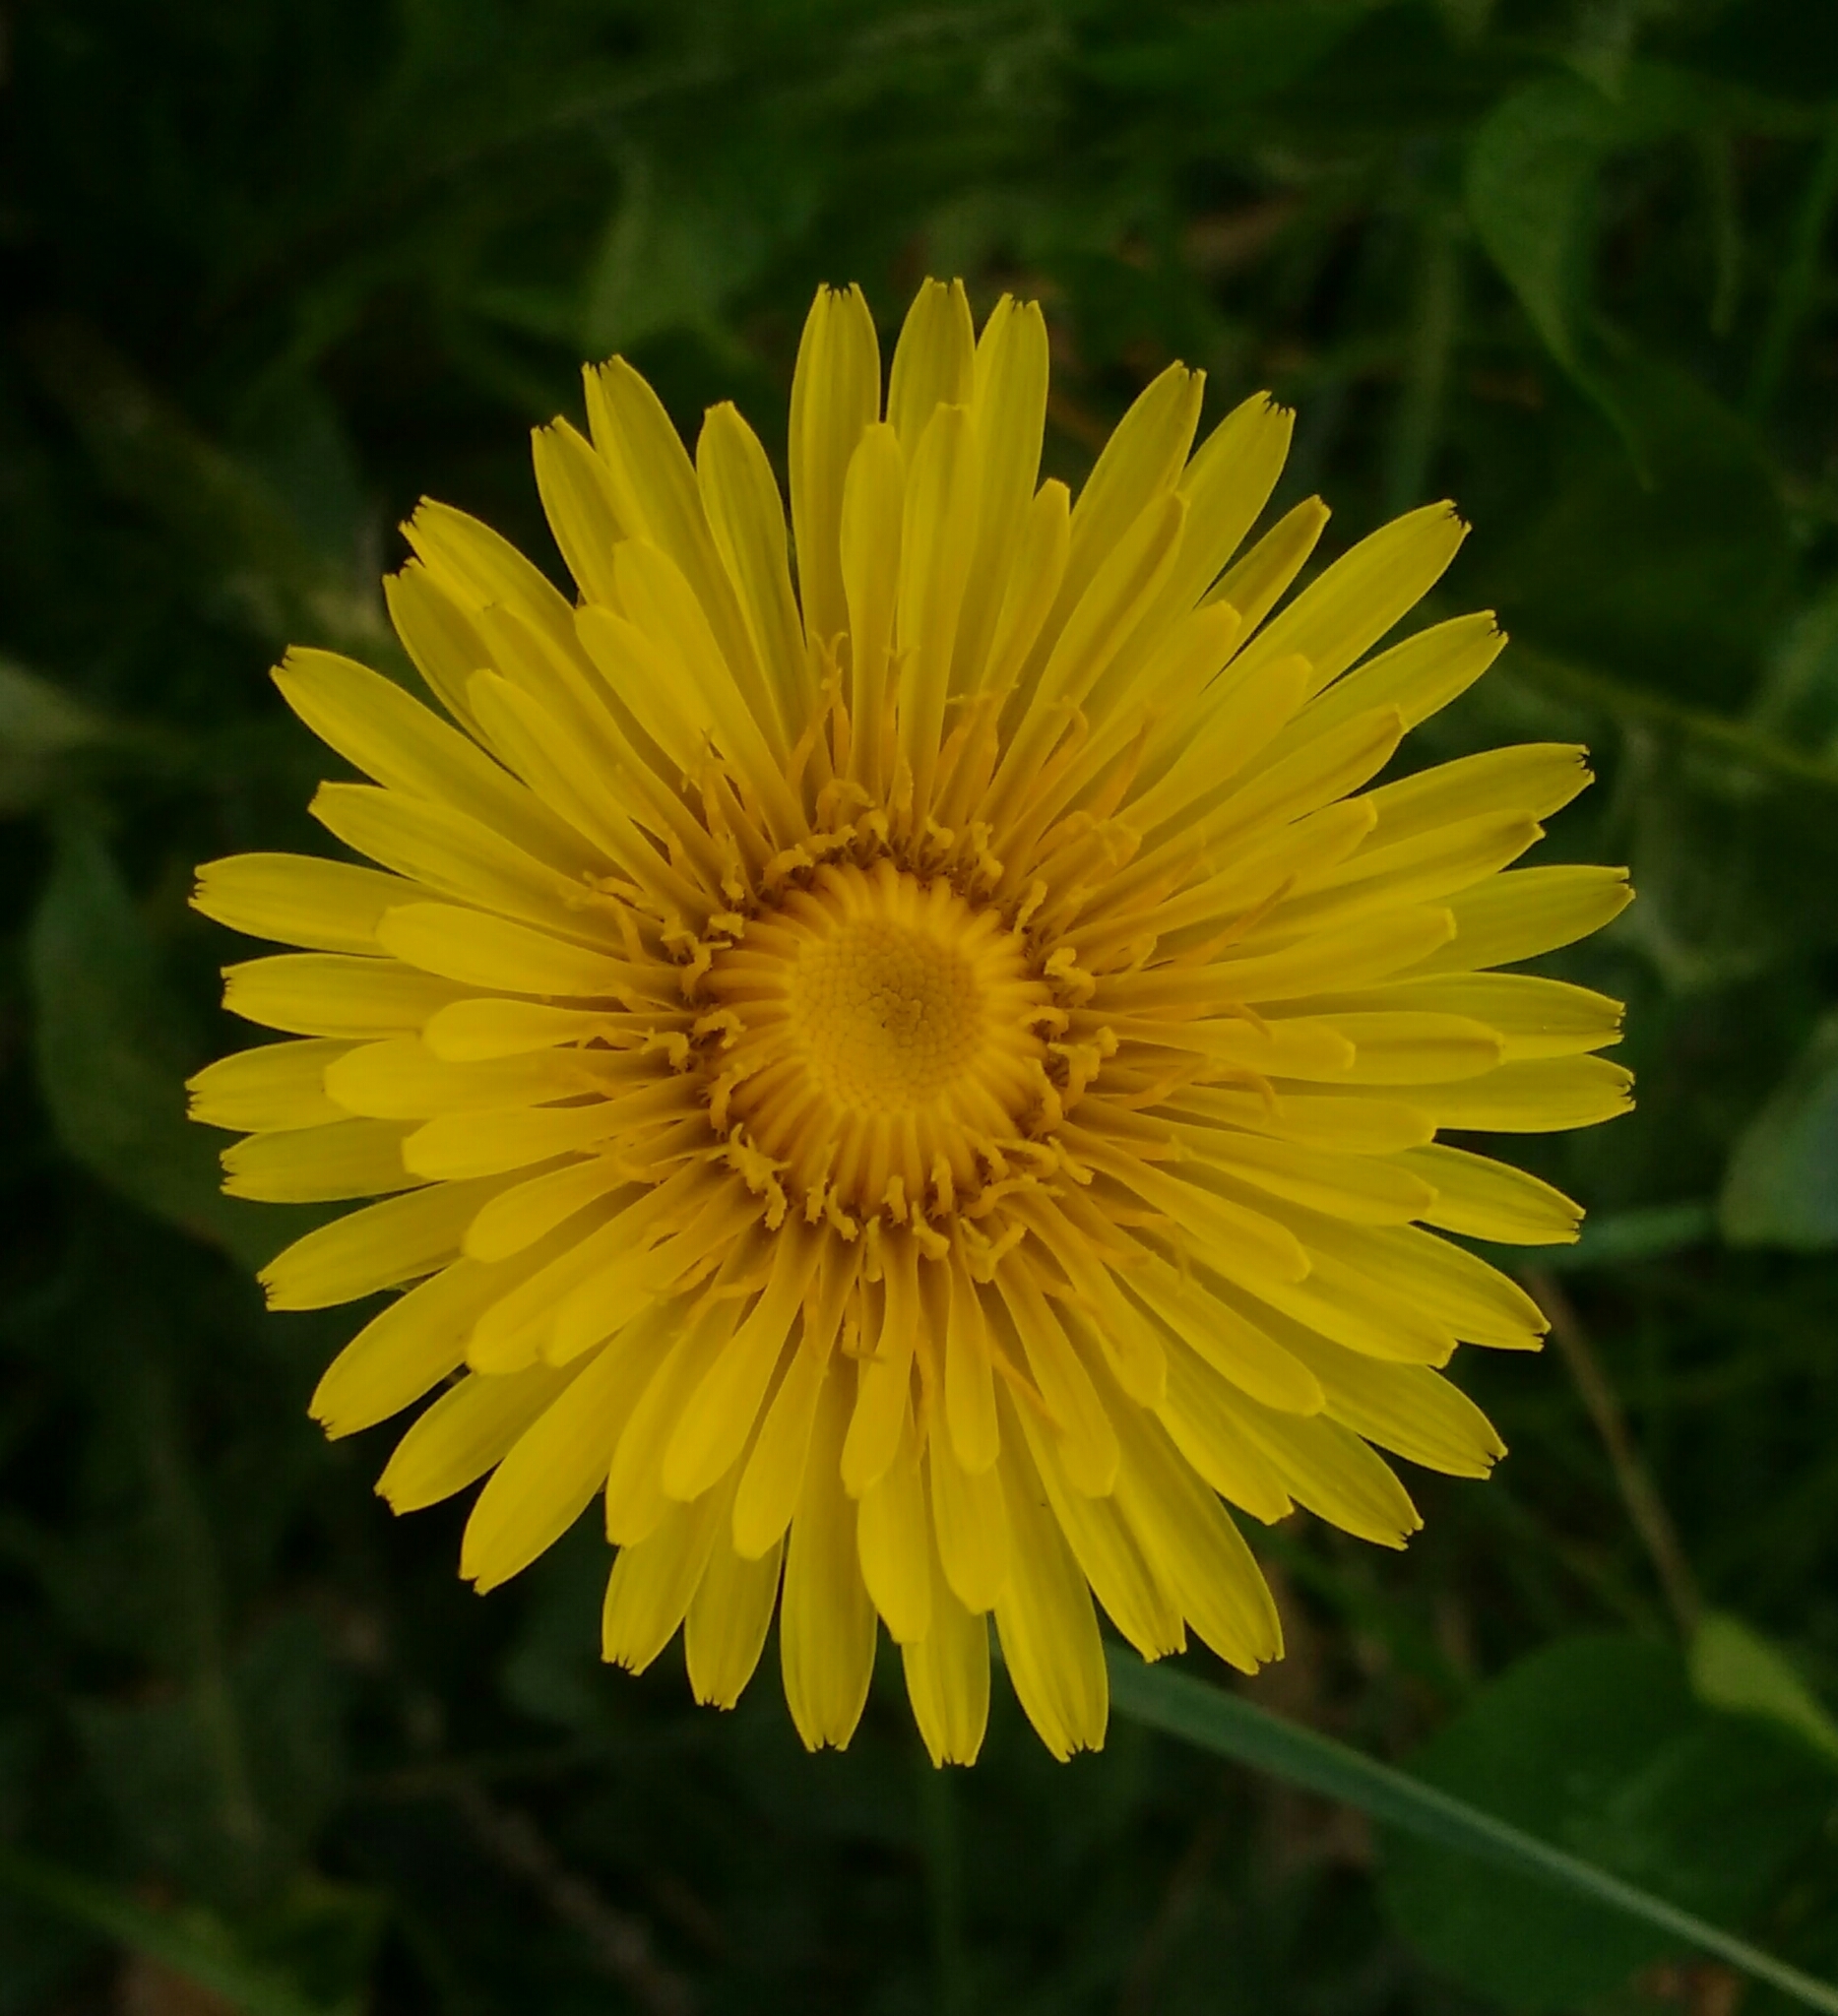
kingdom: Plantae
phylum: Tracheophyta
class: Magnoliopsida
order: Asterales
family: Asteraceae
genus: Taraxacum
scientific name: Taraxacum officinale
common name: Common dandelion
